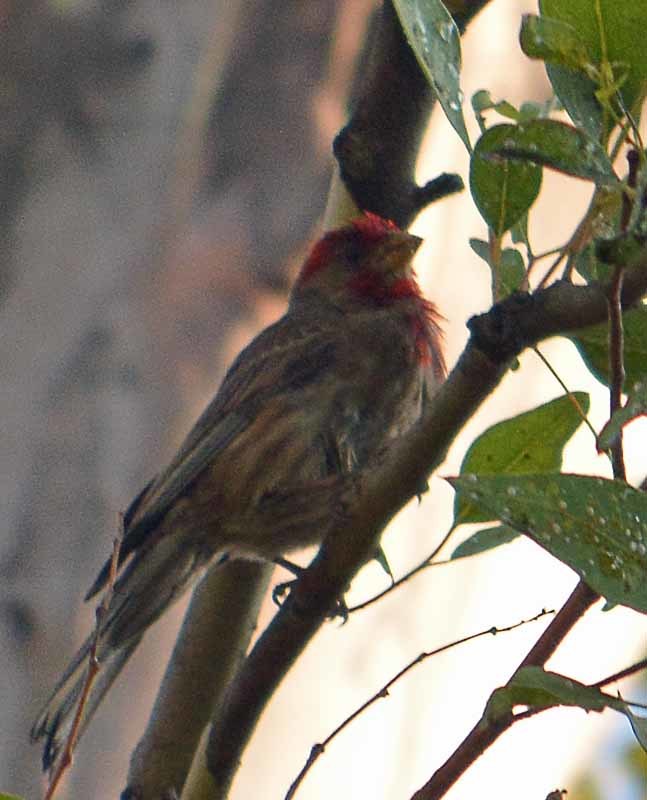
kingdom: Animalia
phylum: Chordata
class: Aves
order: Passeriformes
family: Fringillidae
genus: Haemorhous
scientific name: Haemorhous mexicanus
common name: House finch
